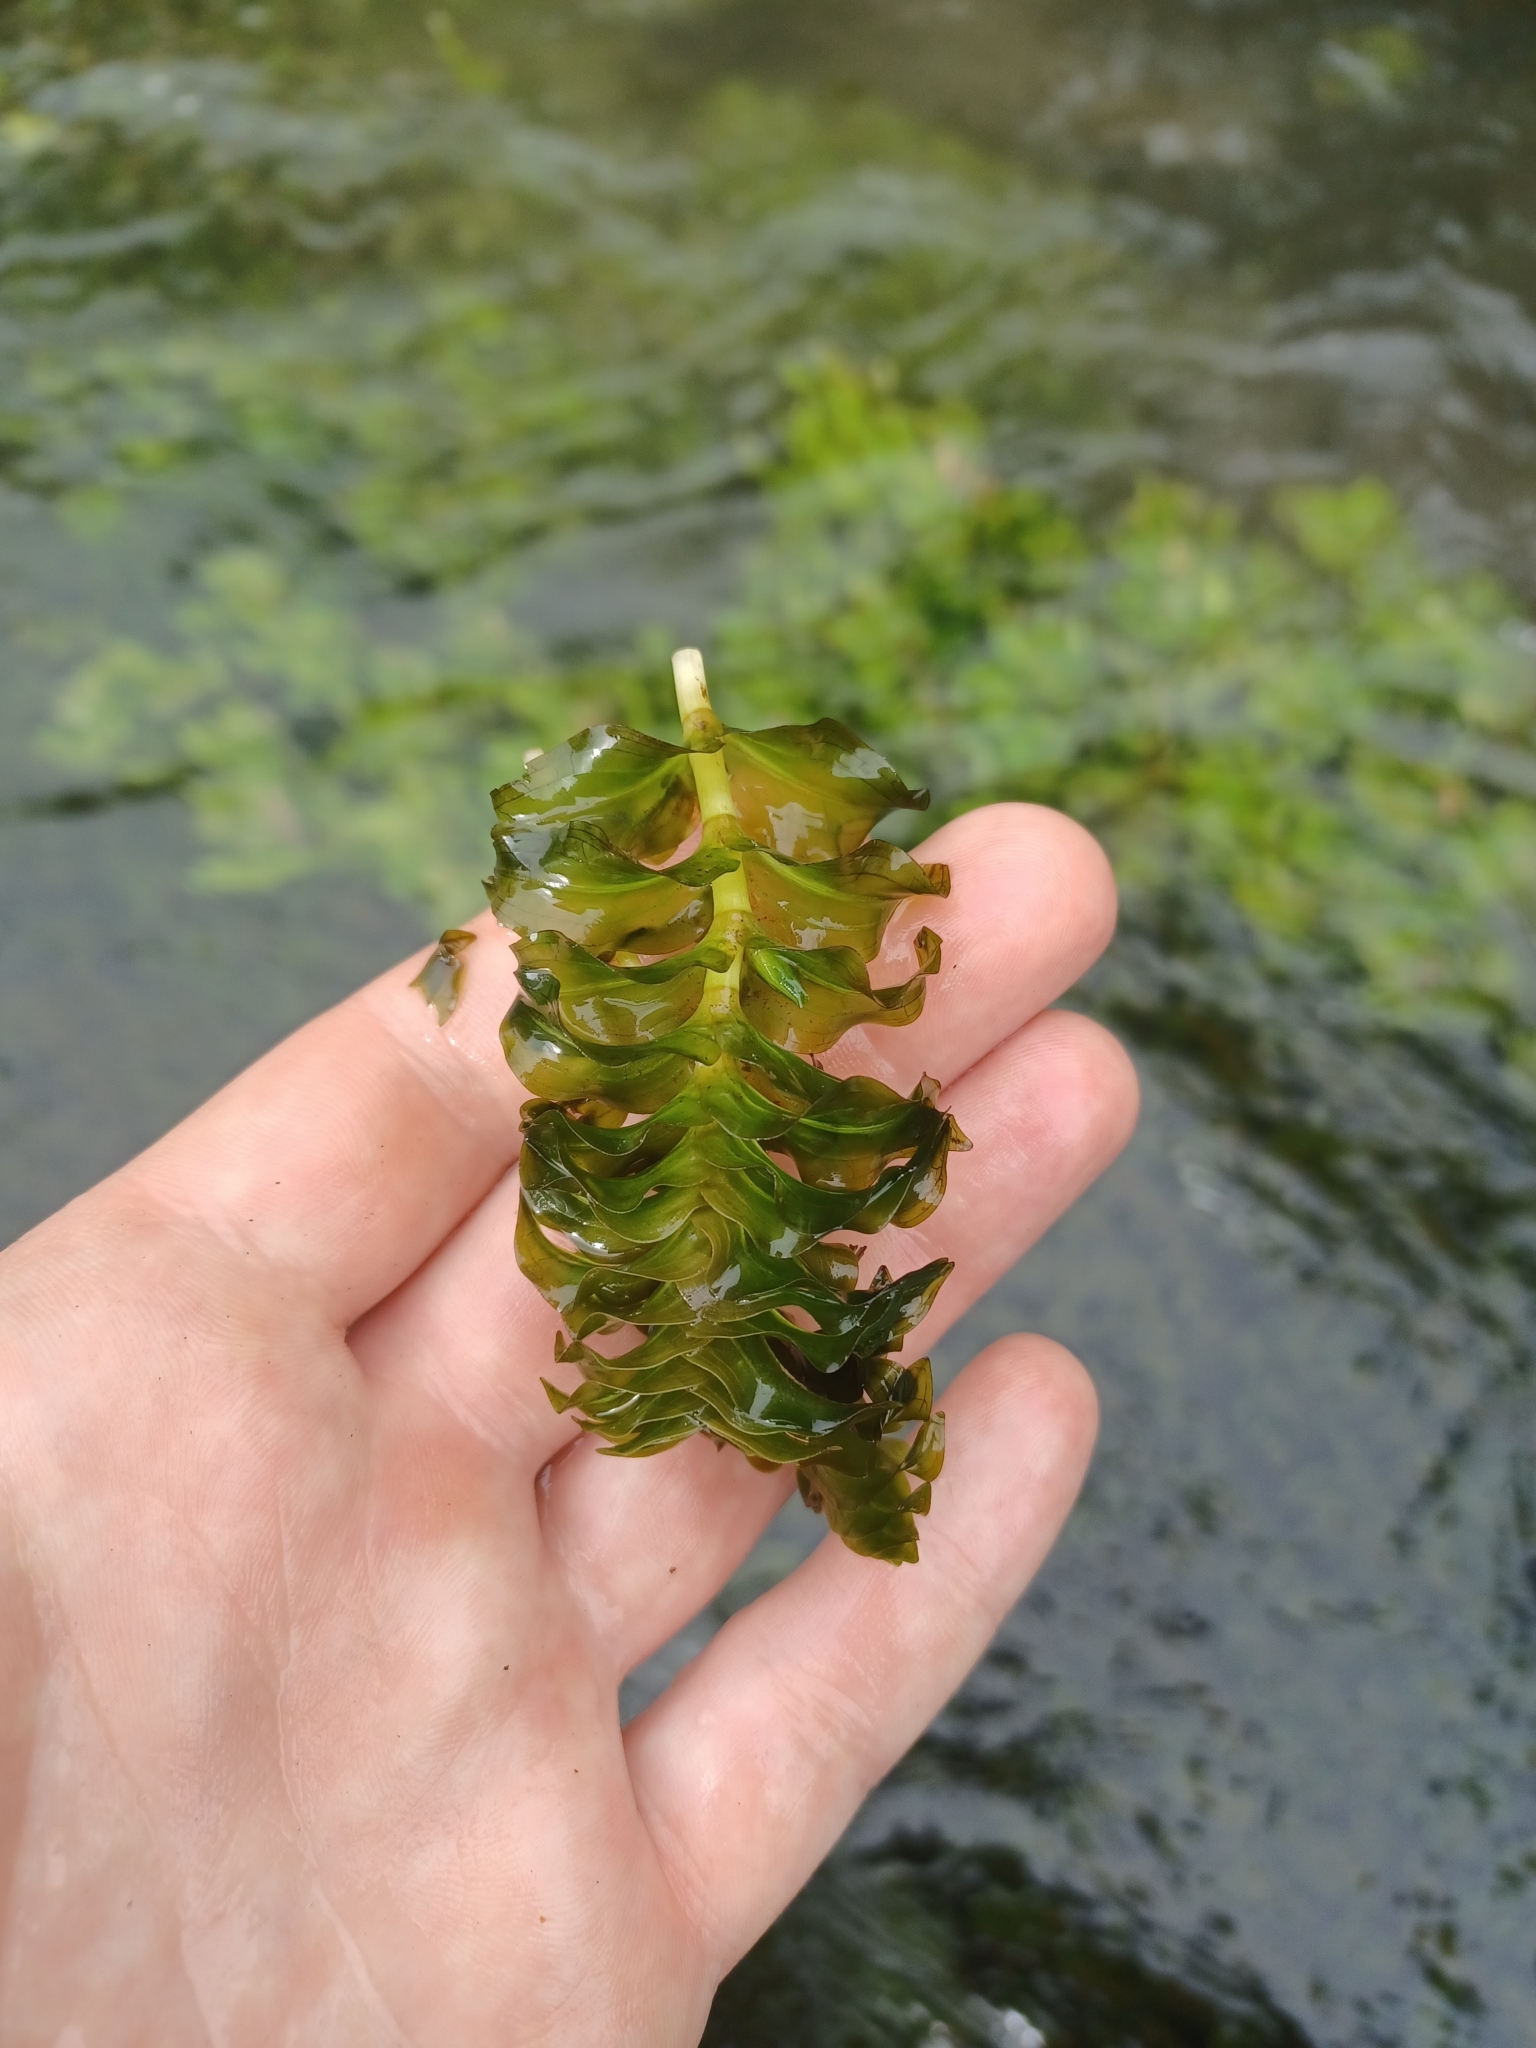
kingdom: Plantae
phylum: Tracheophyta
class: Liliopsida
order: Alismatales
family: Potamogetonaceae
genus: Groenlandia
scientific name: Groenlandia densa
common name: Opposite-leaved pondweed
